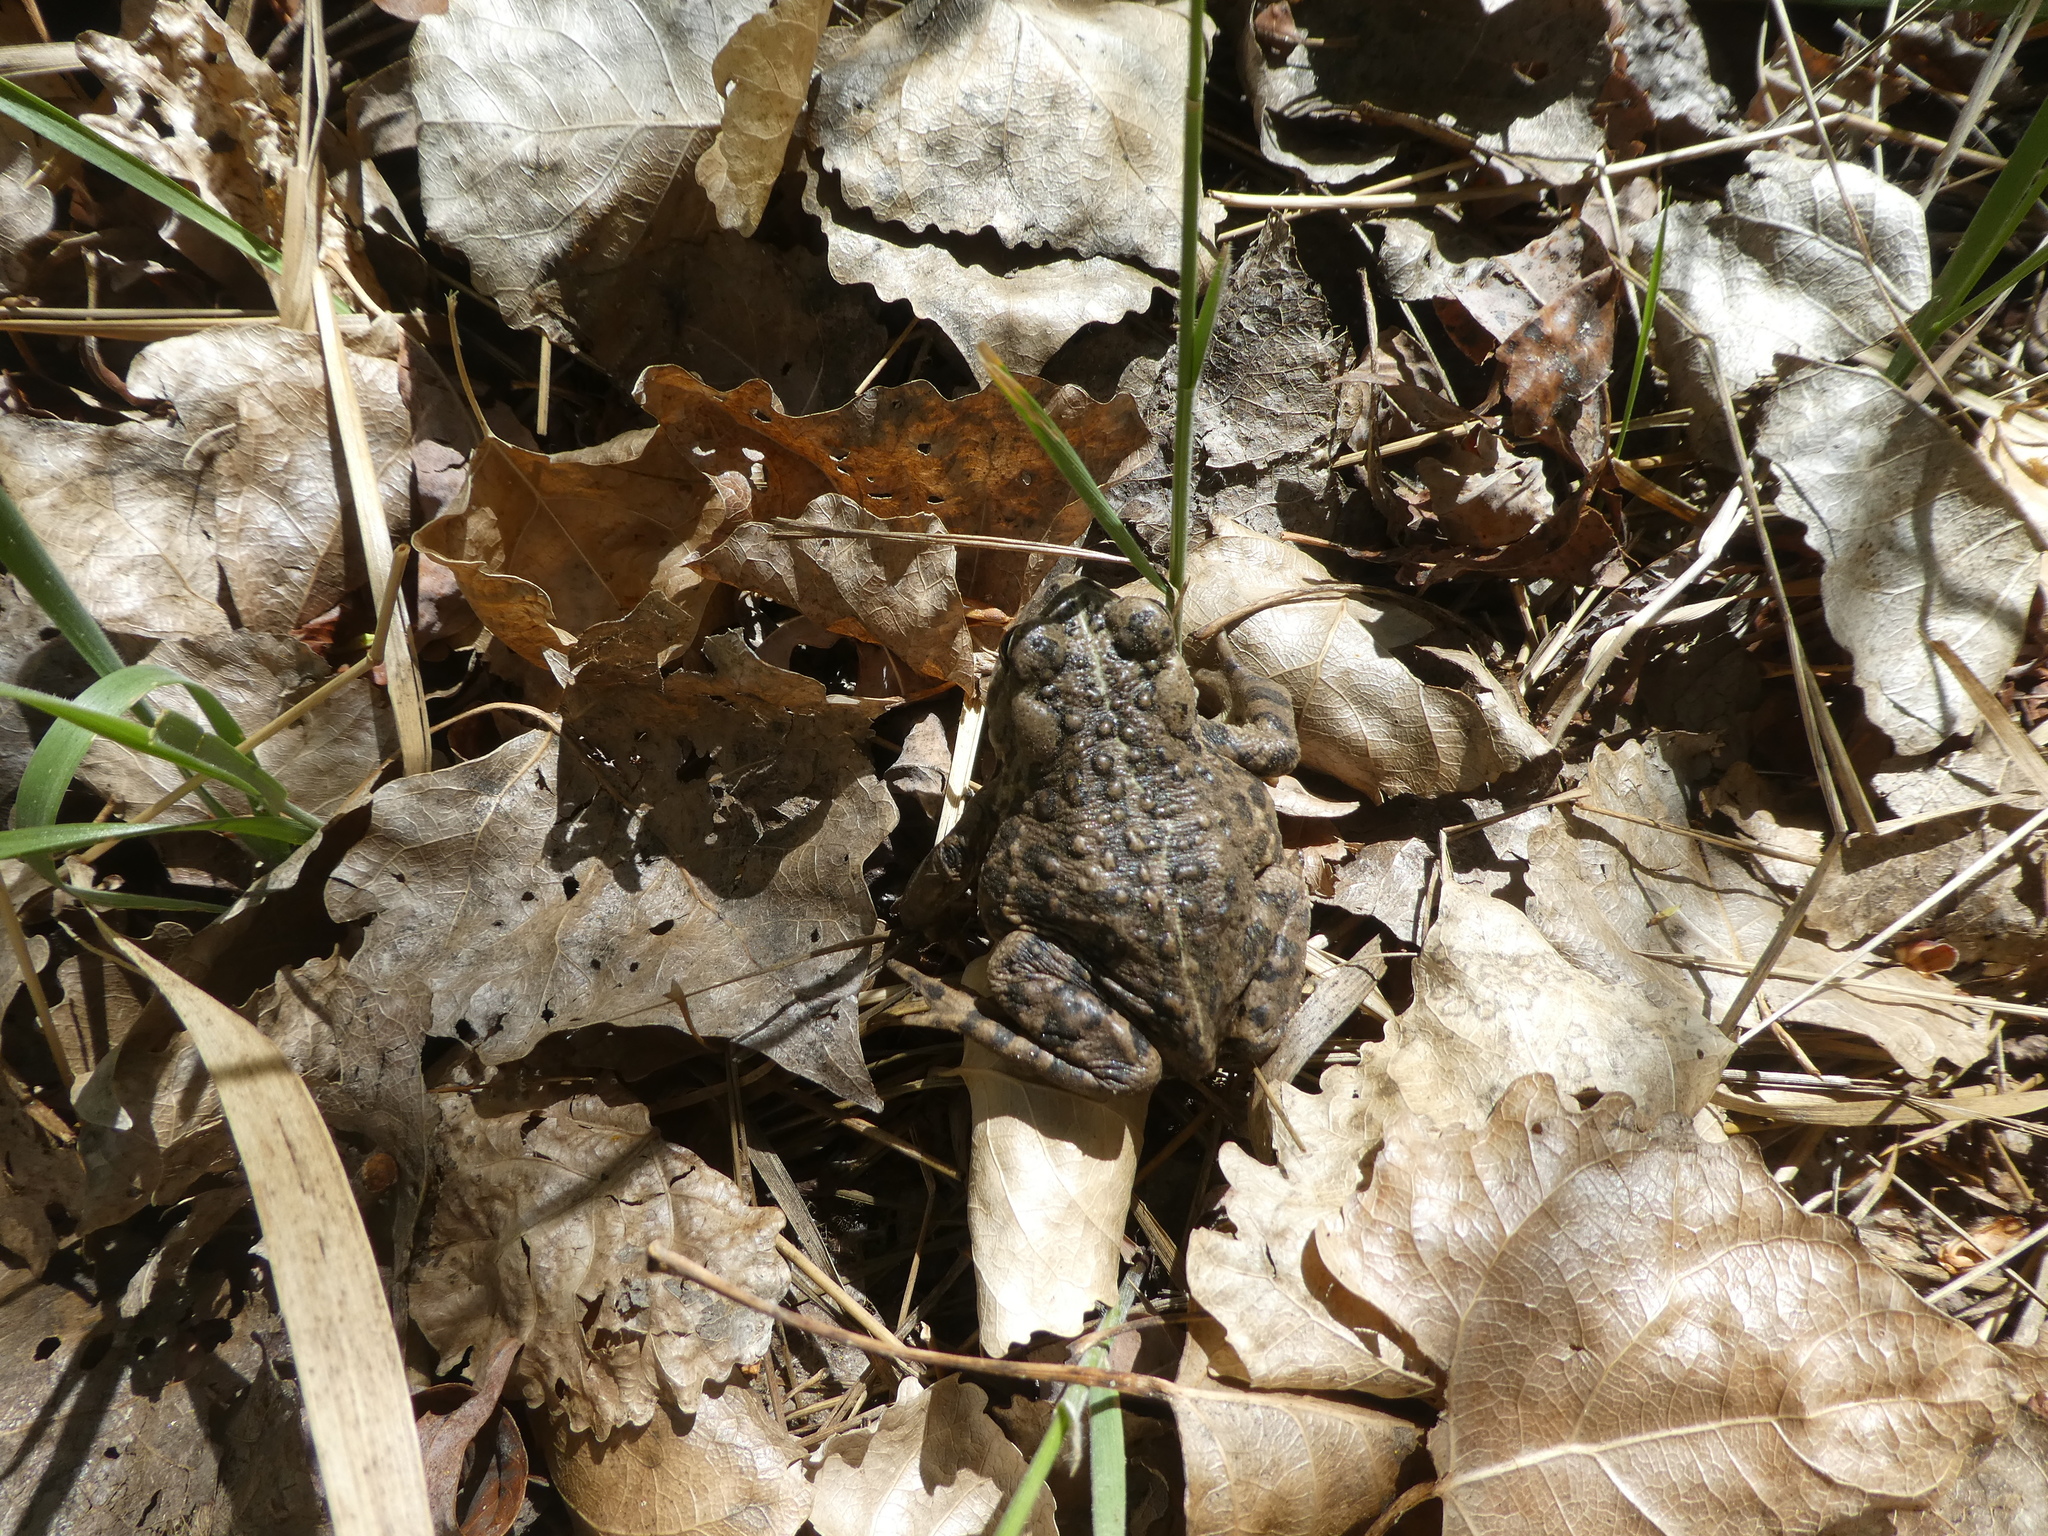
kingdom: Animalia
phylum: Chordata
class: Amphibia
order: Anura
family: Bufonidae
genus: Anaxyrus
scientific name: Anaxyrus boreas
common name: Western toad
